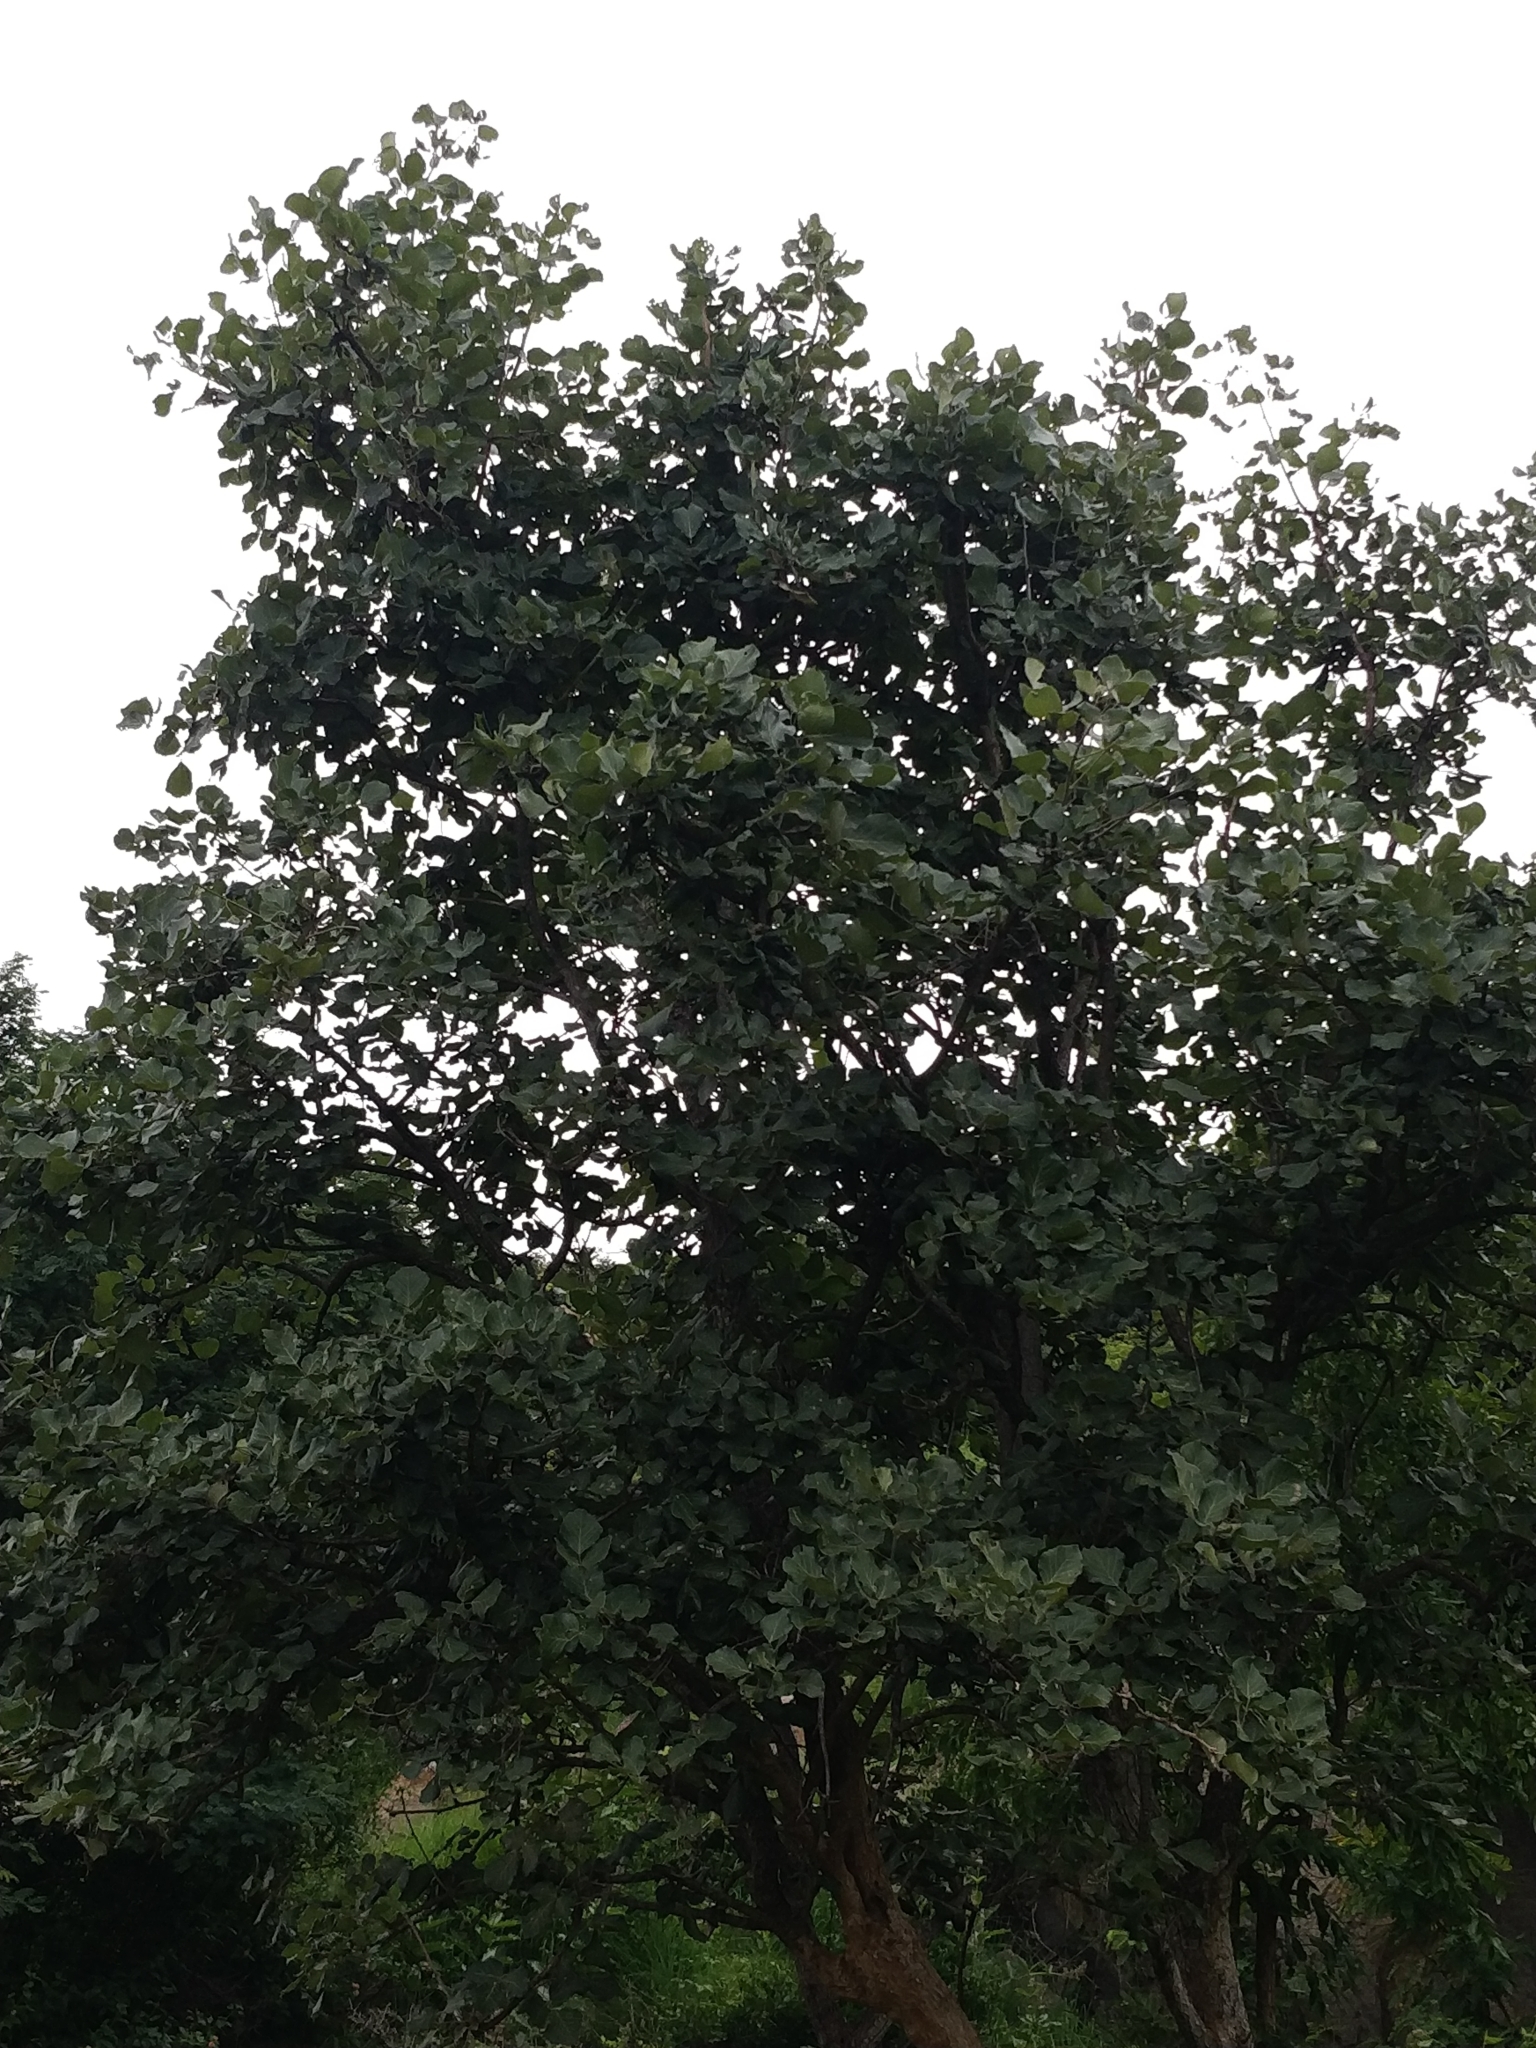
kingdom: Plantae
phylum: Tracheophyta
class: Magnoliopsida
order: Fabales
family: Fabaceae
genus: Butea
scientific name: Butea monosperma
